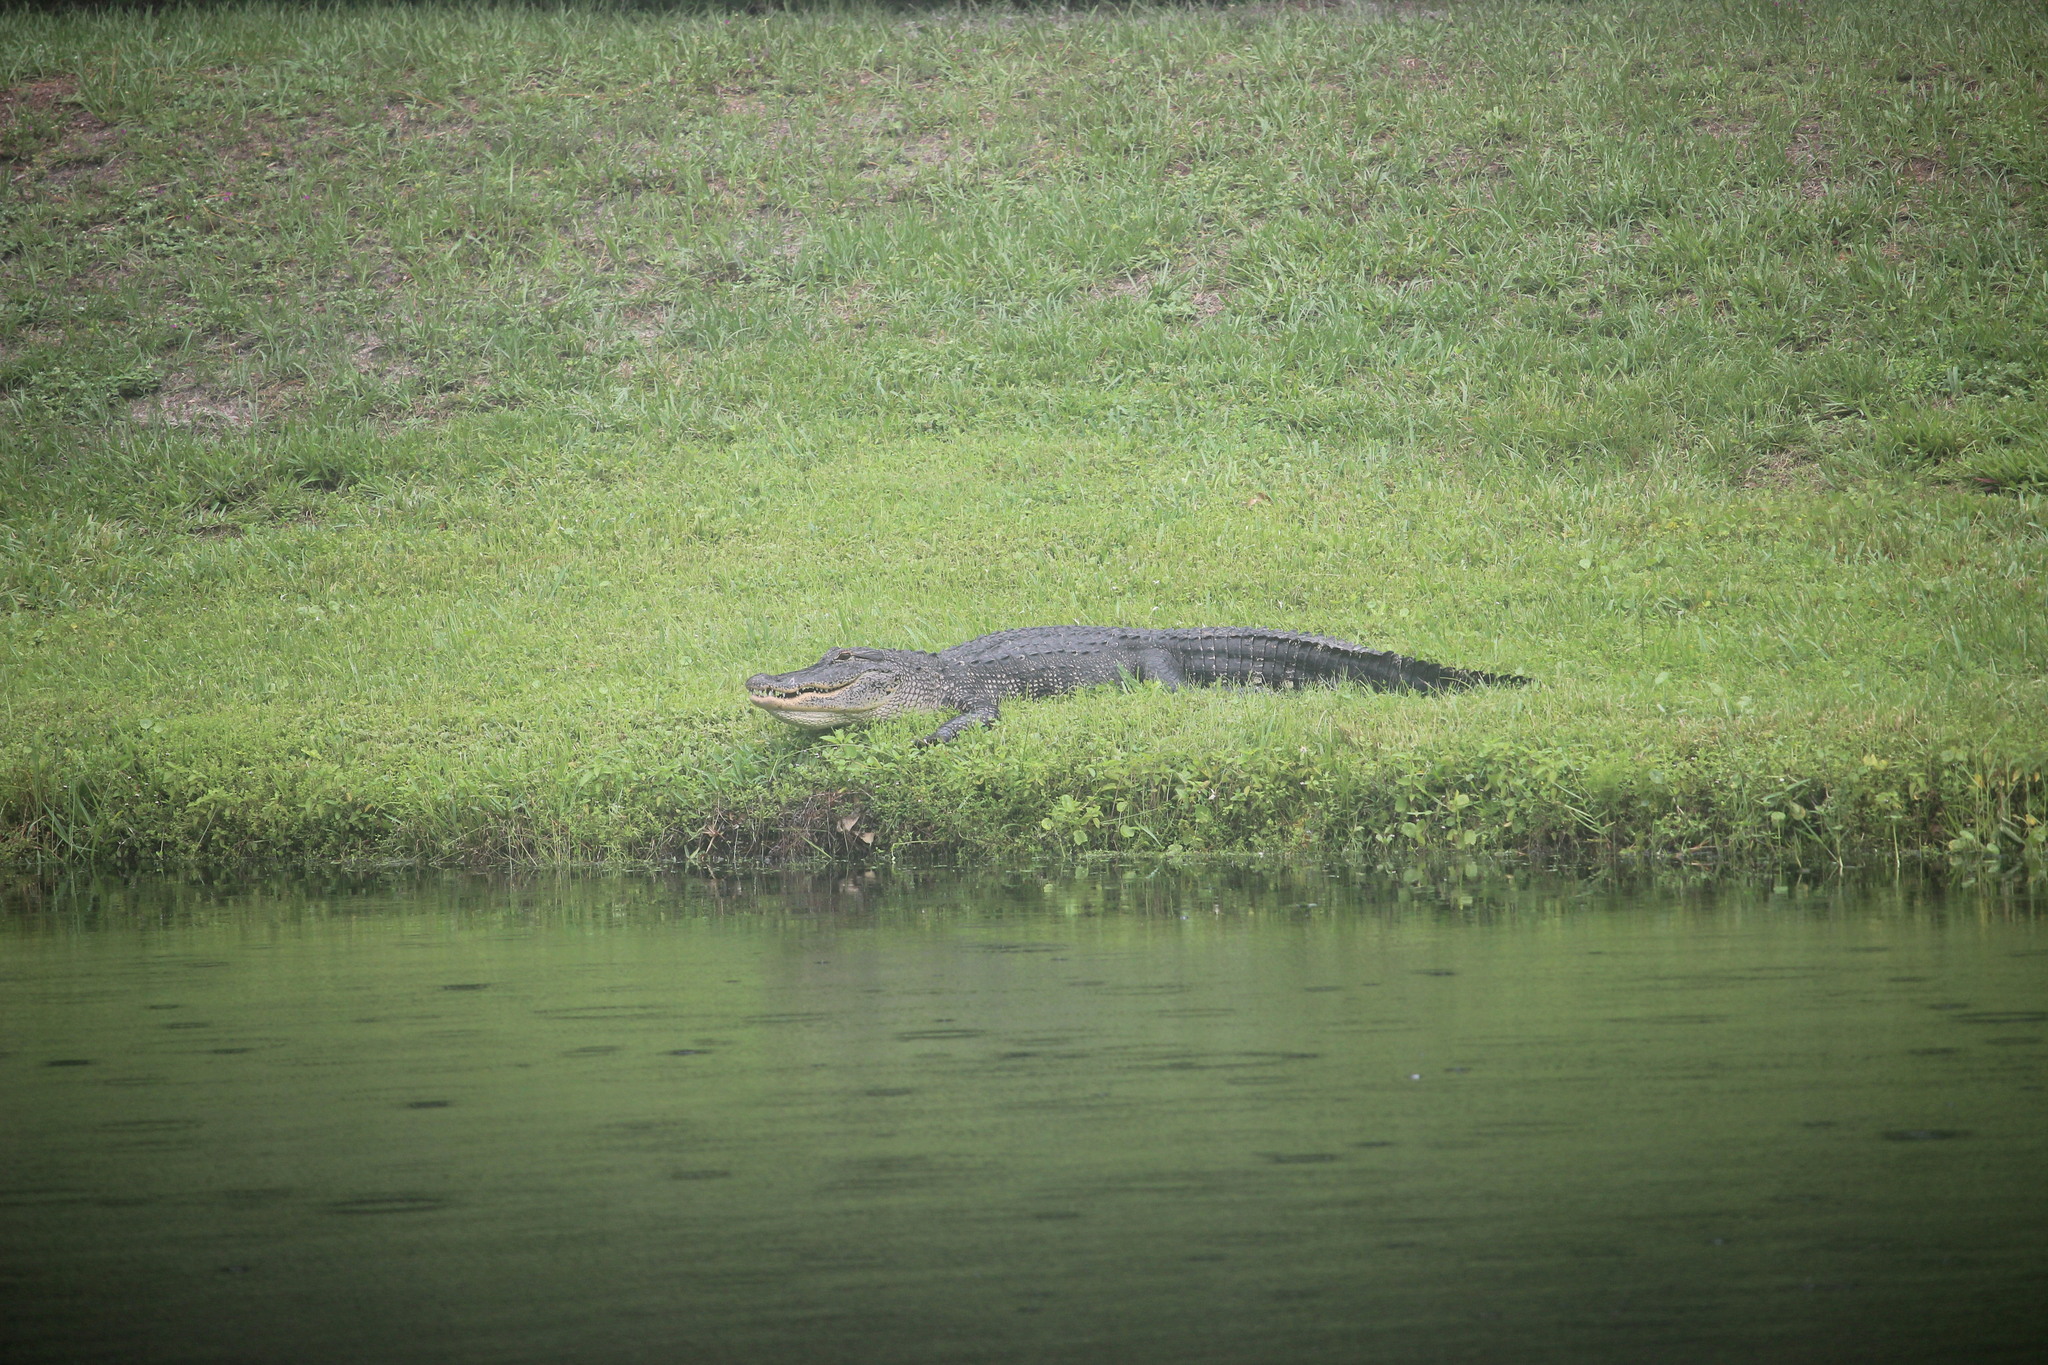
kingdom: Animalia
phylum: Chordata
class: Crocodylia
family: Alligatoridae
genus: Alligator
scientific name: Alligator mississippiensis
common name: American alligator
